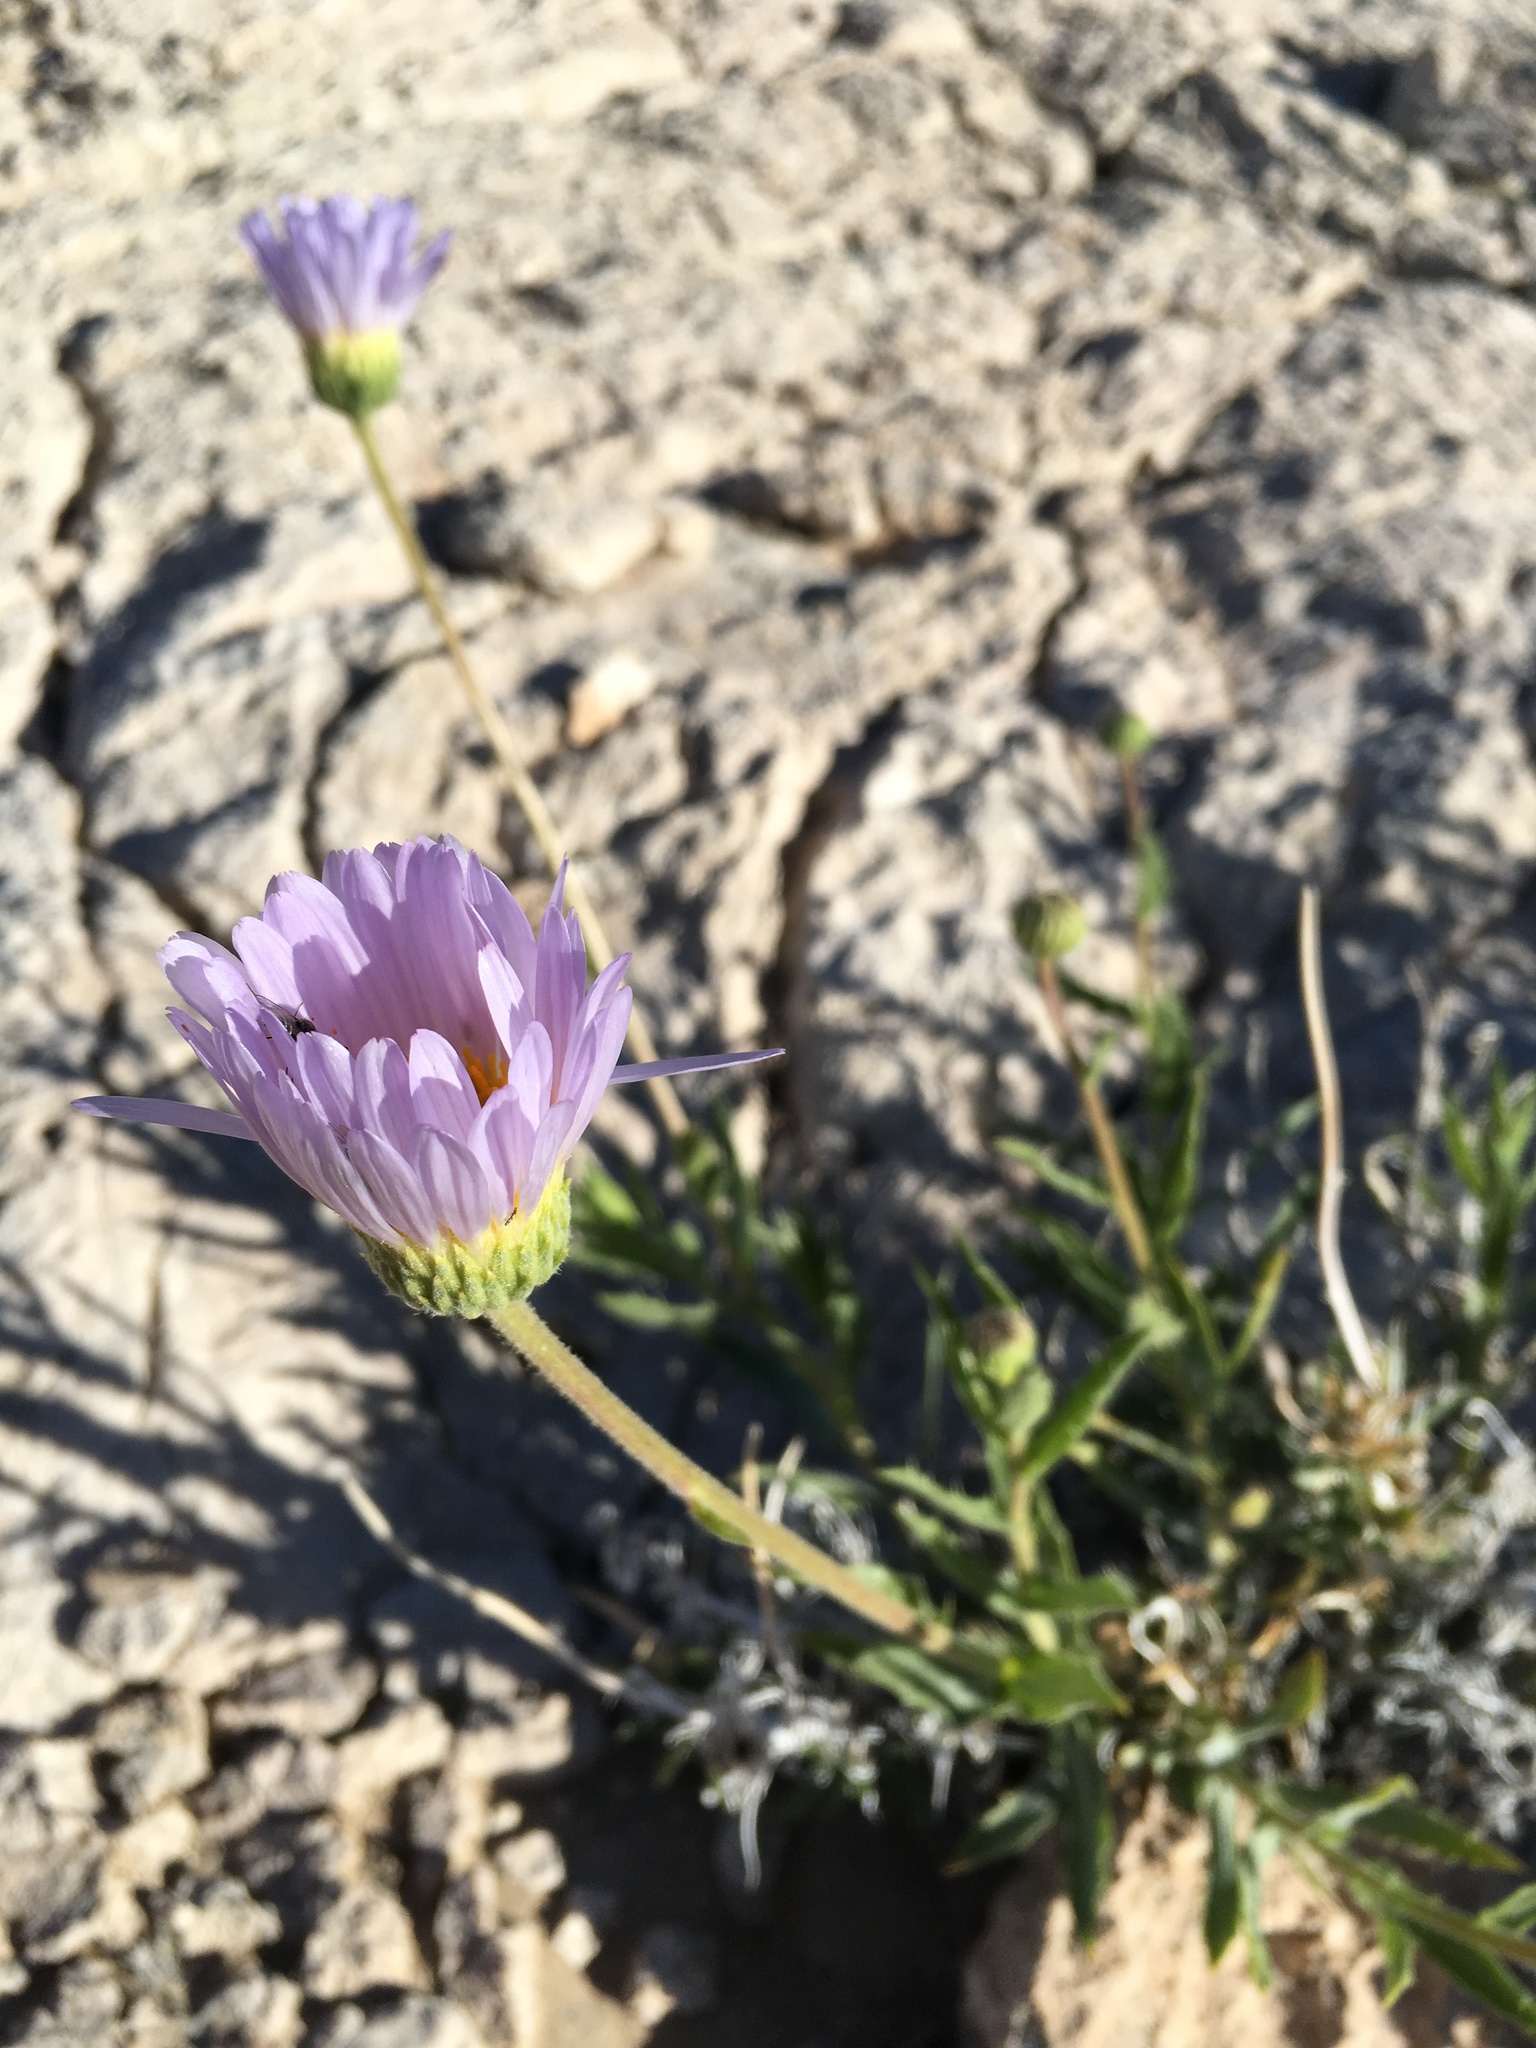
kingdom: Plantae
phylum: Tracheophyta
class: Magnoliopsida
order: Asterales
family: Asteraceae
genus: Xylorhiza
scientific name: Xylorhiza tortifolia
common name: Hurt-leaf woody-aster
